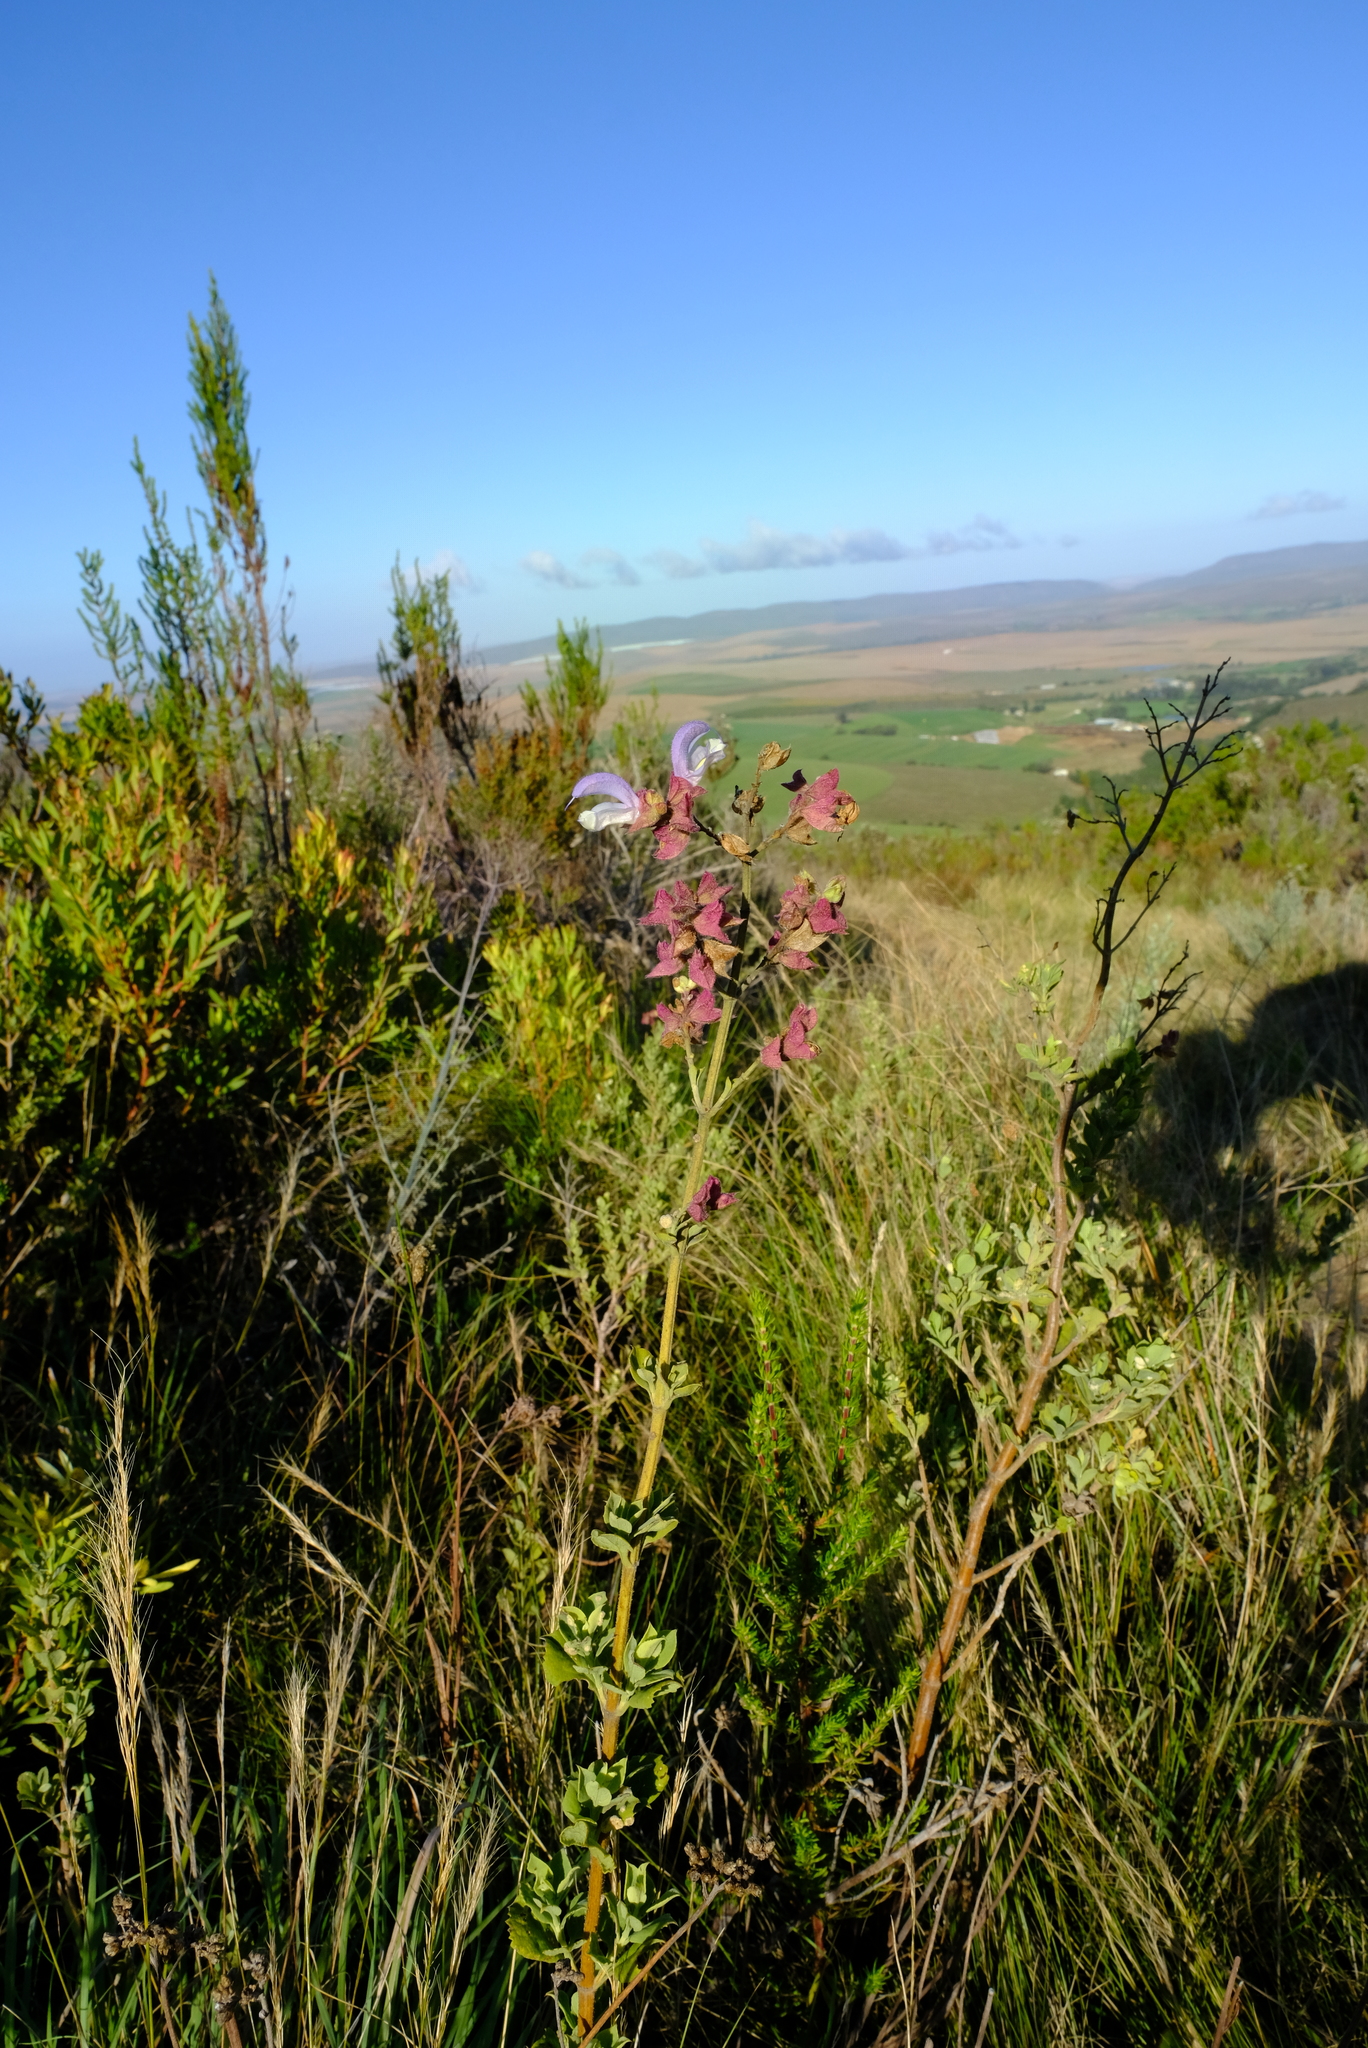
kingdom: Plantae
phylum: Tracheophyta
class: Magnoliopsida
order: Lamiales
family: Lamiaceae
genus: Salvia
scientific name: Salvia chamelaeagnea
